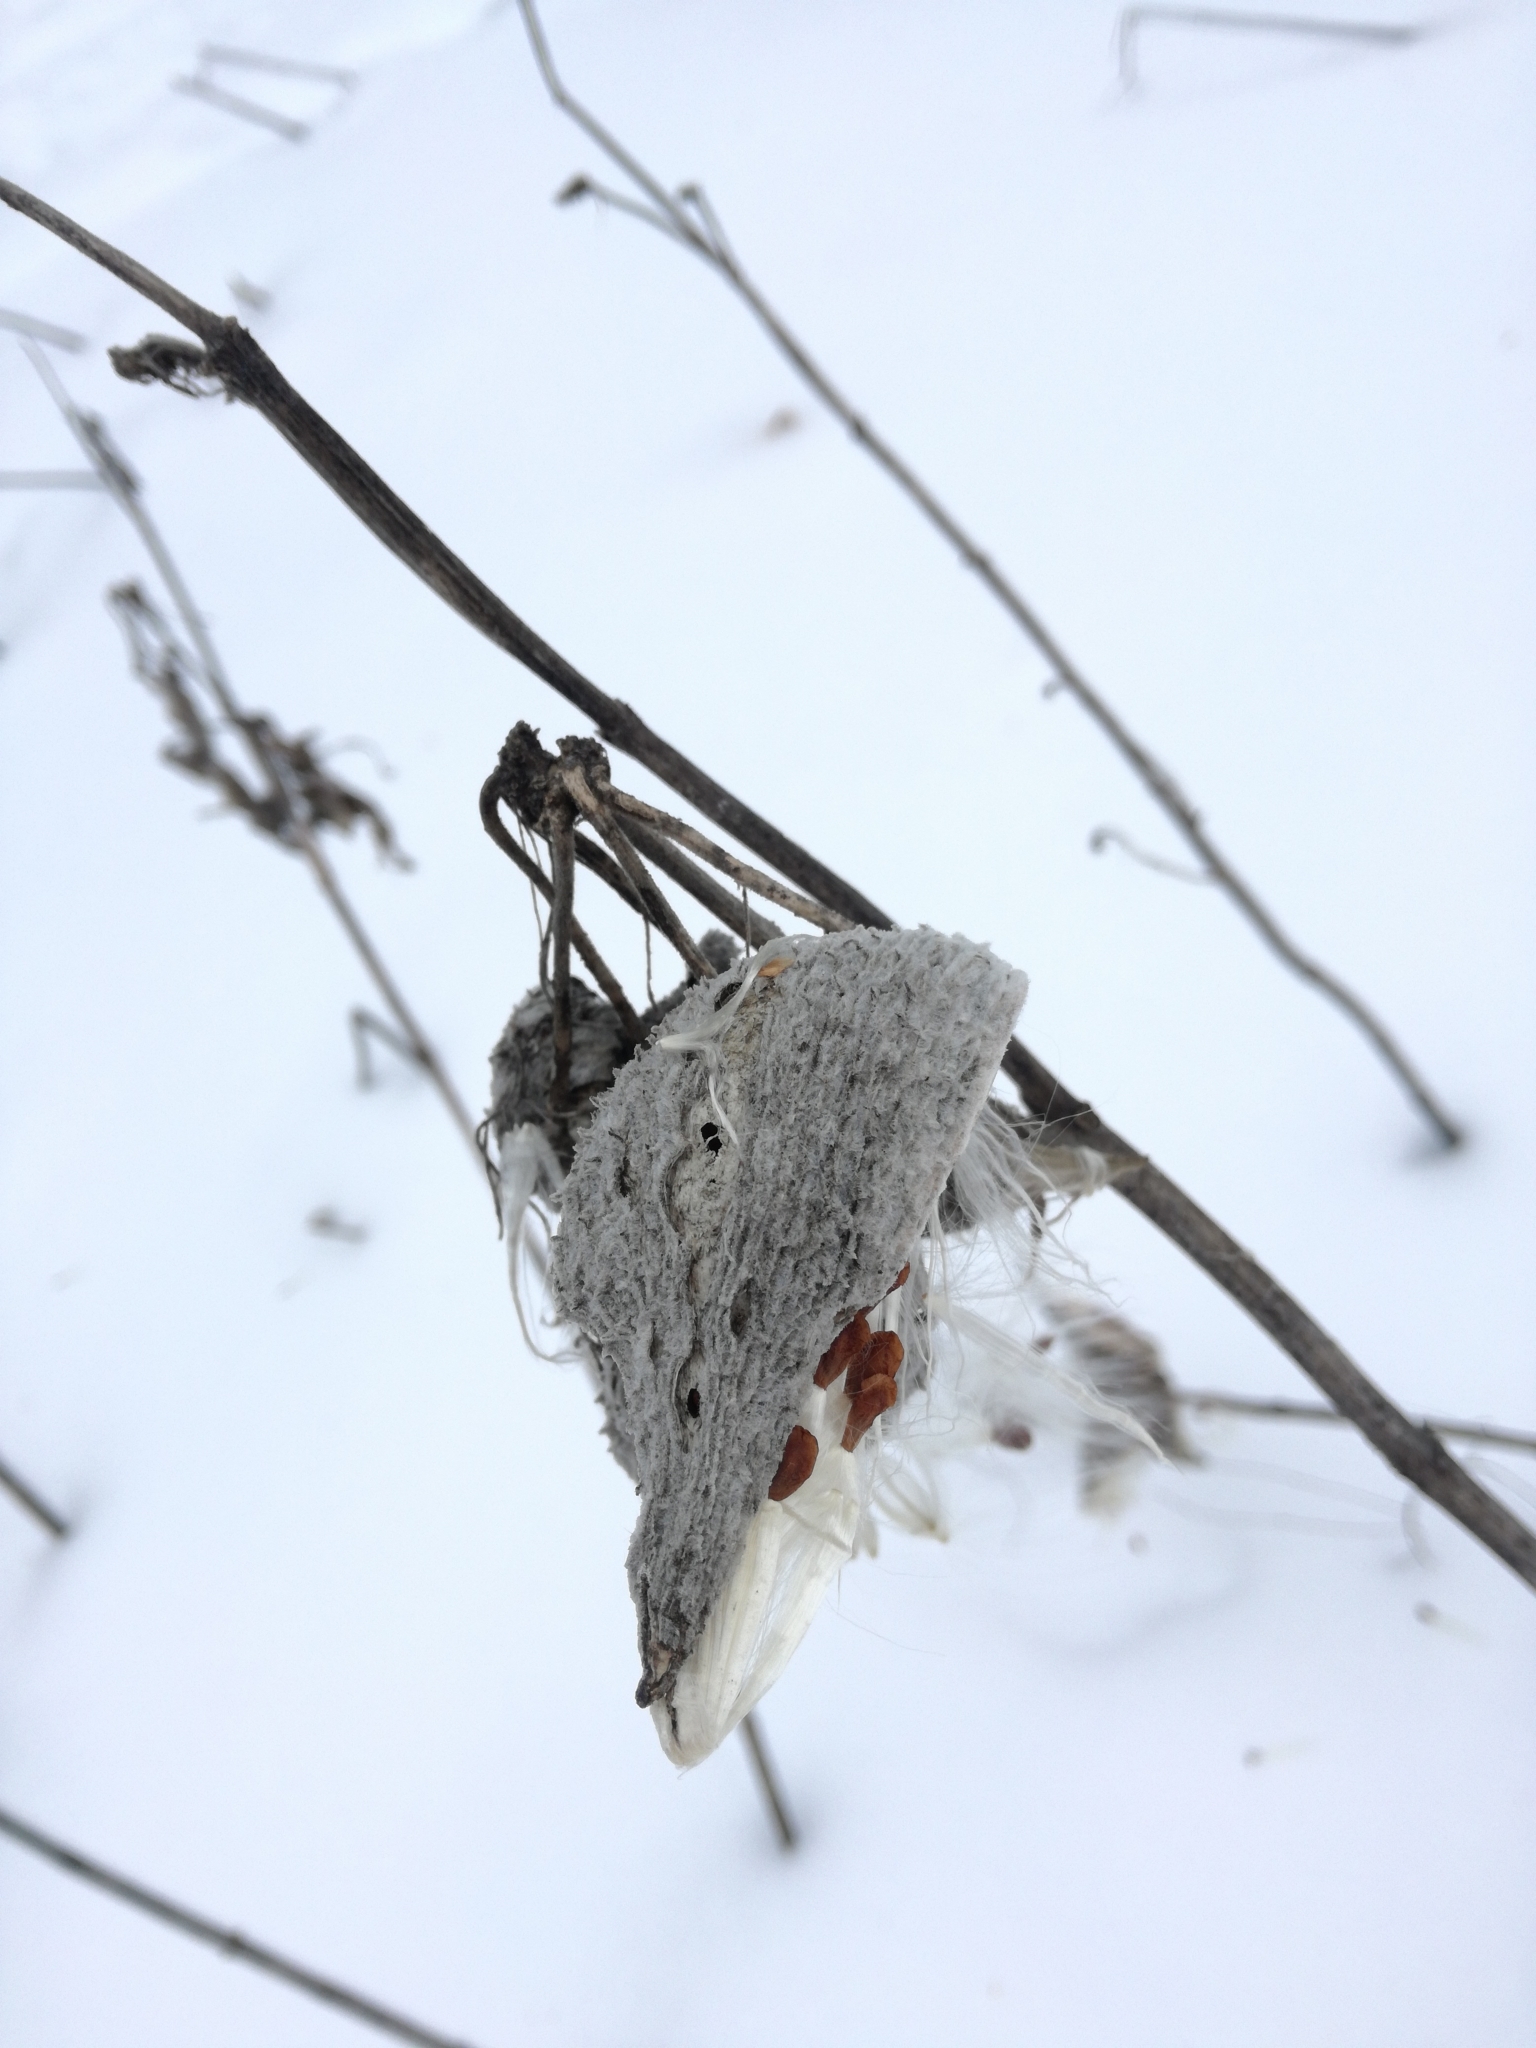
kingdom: Plantae
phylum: Tracheophyta
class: Magnoliopsida
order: Gentianales
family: Apocynaceae
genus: Asclepias
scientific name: Asclepias syriaca
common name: Common milkweed
